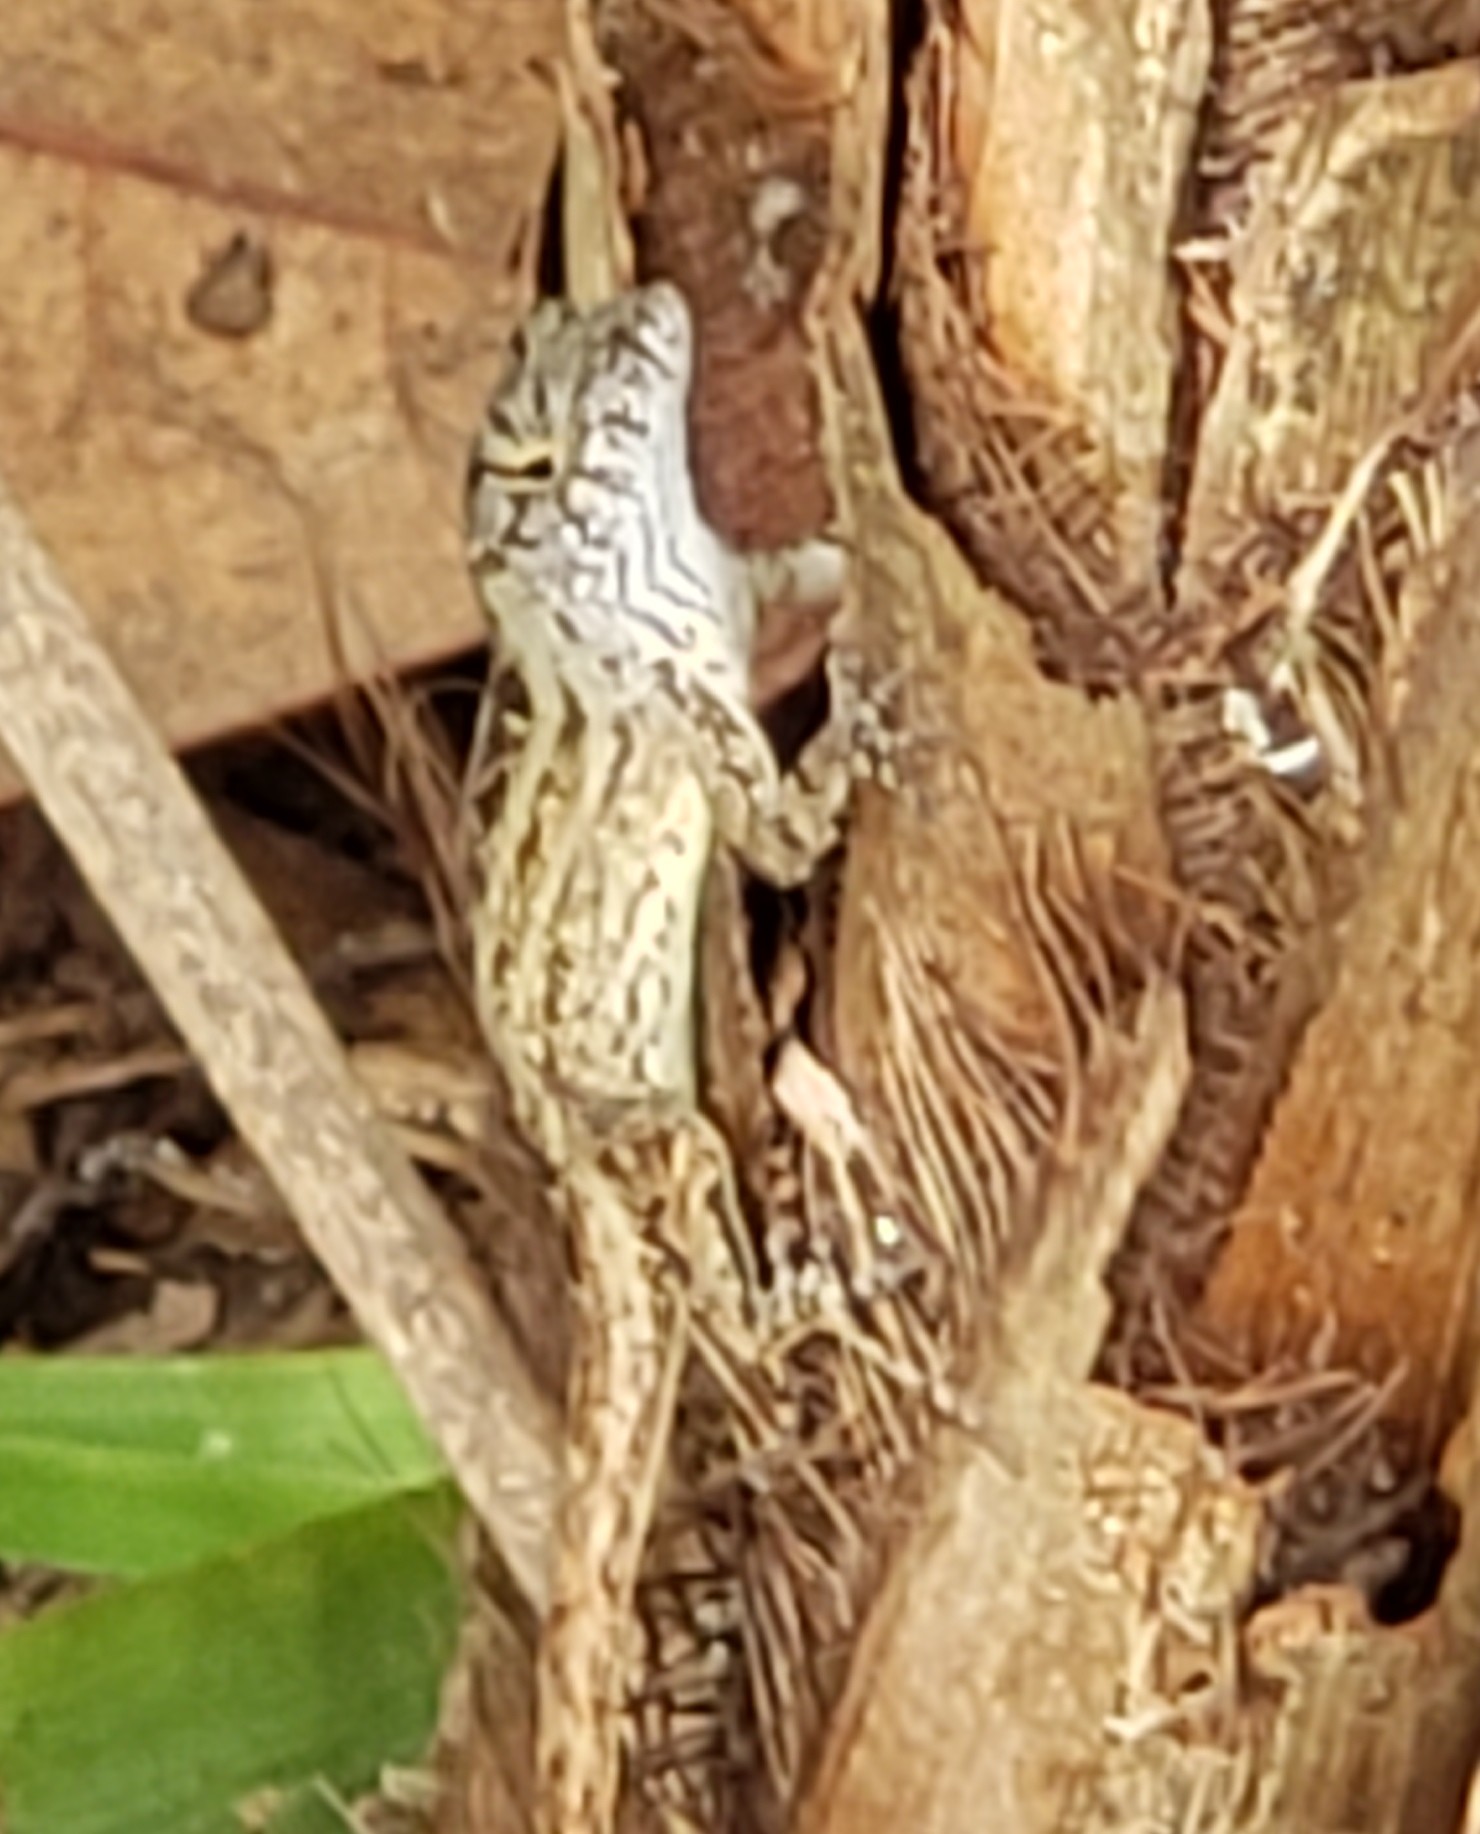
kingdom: Animalia
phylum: Chordata
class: Squamata
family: Dactyloidae
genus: Anolis
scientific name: Anolis sagrei
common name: Brown anole
